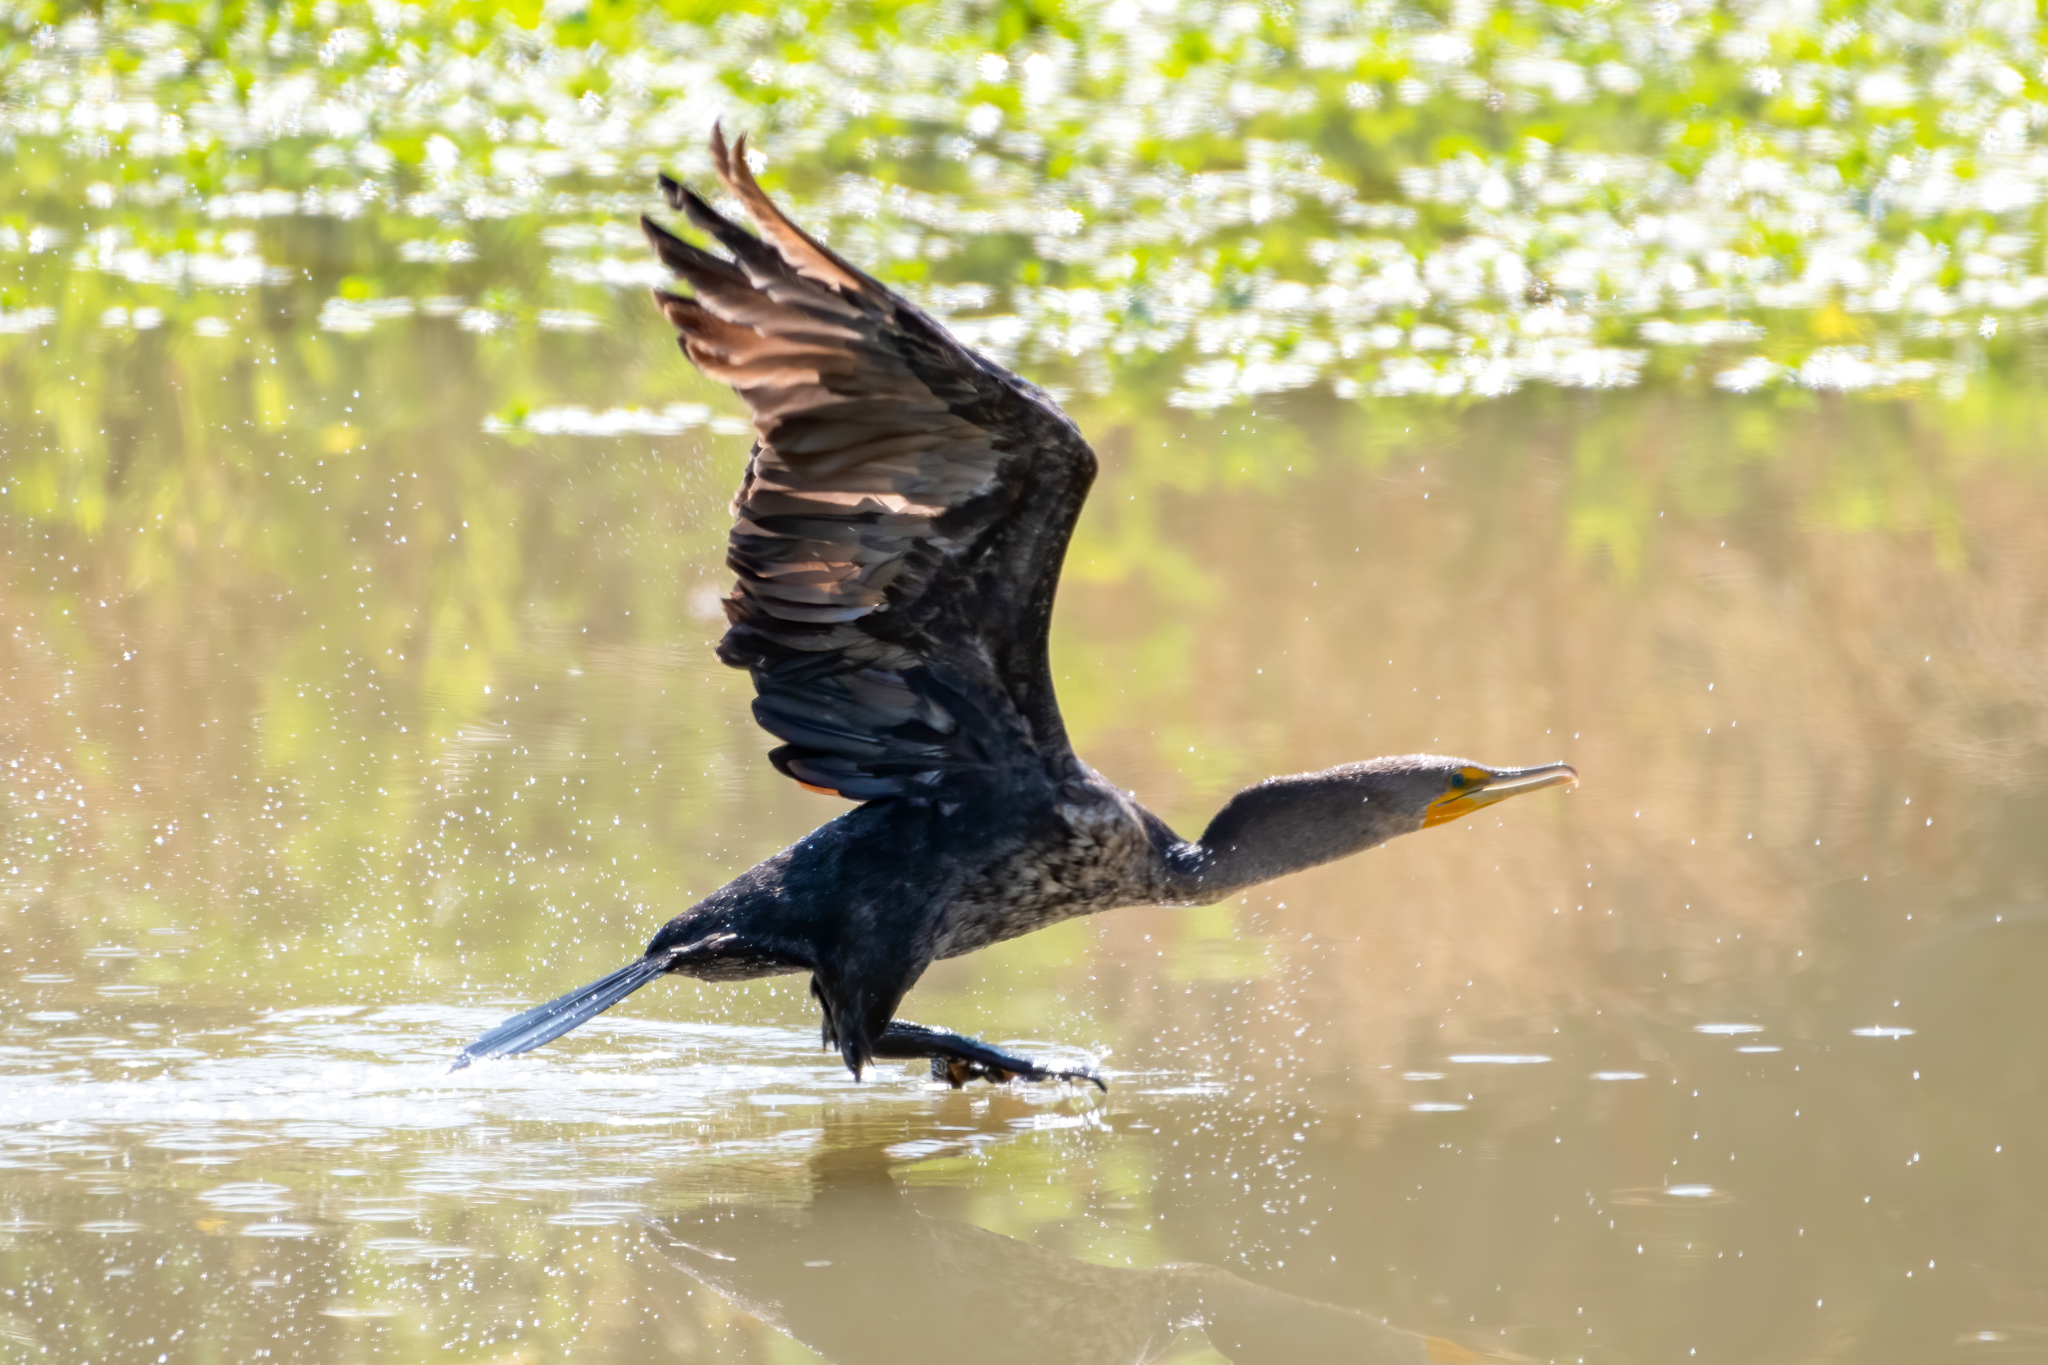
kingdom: Animalia
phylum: Chordata
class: Aves
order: Suliformes
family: Phalacrocoracidae
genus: Phalacrocorax
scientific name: Phalacrocorax auritus
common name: Double-crested cormorant
